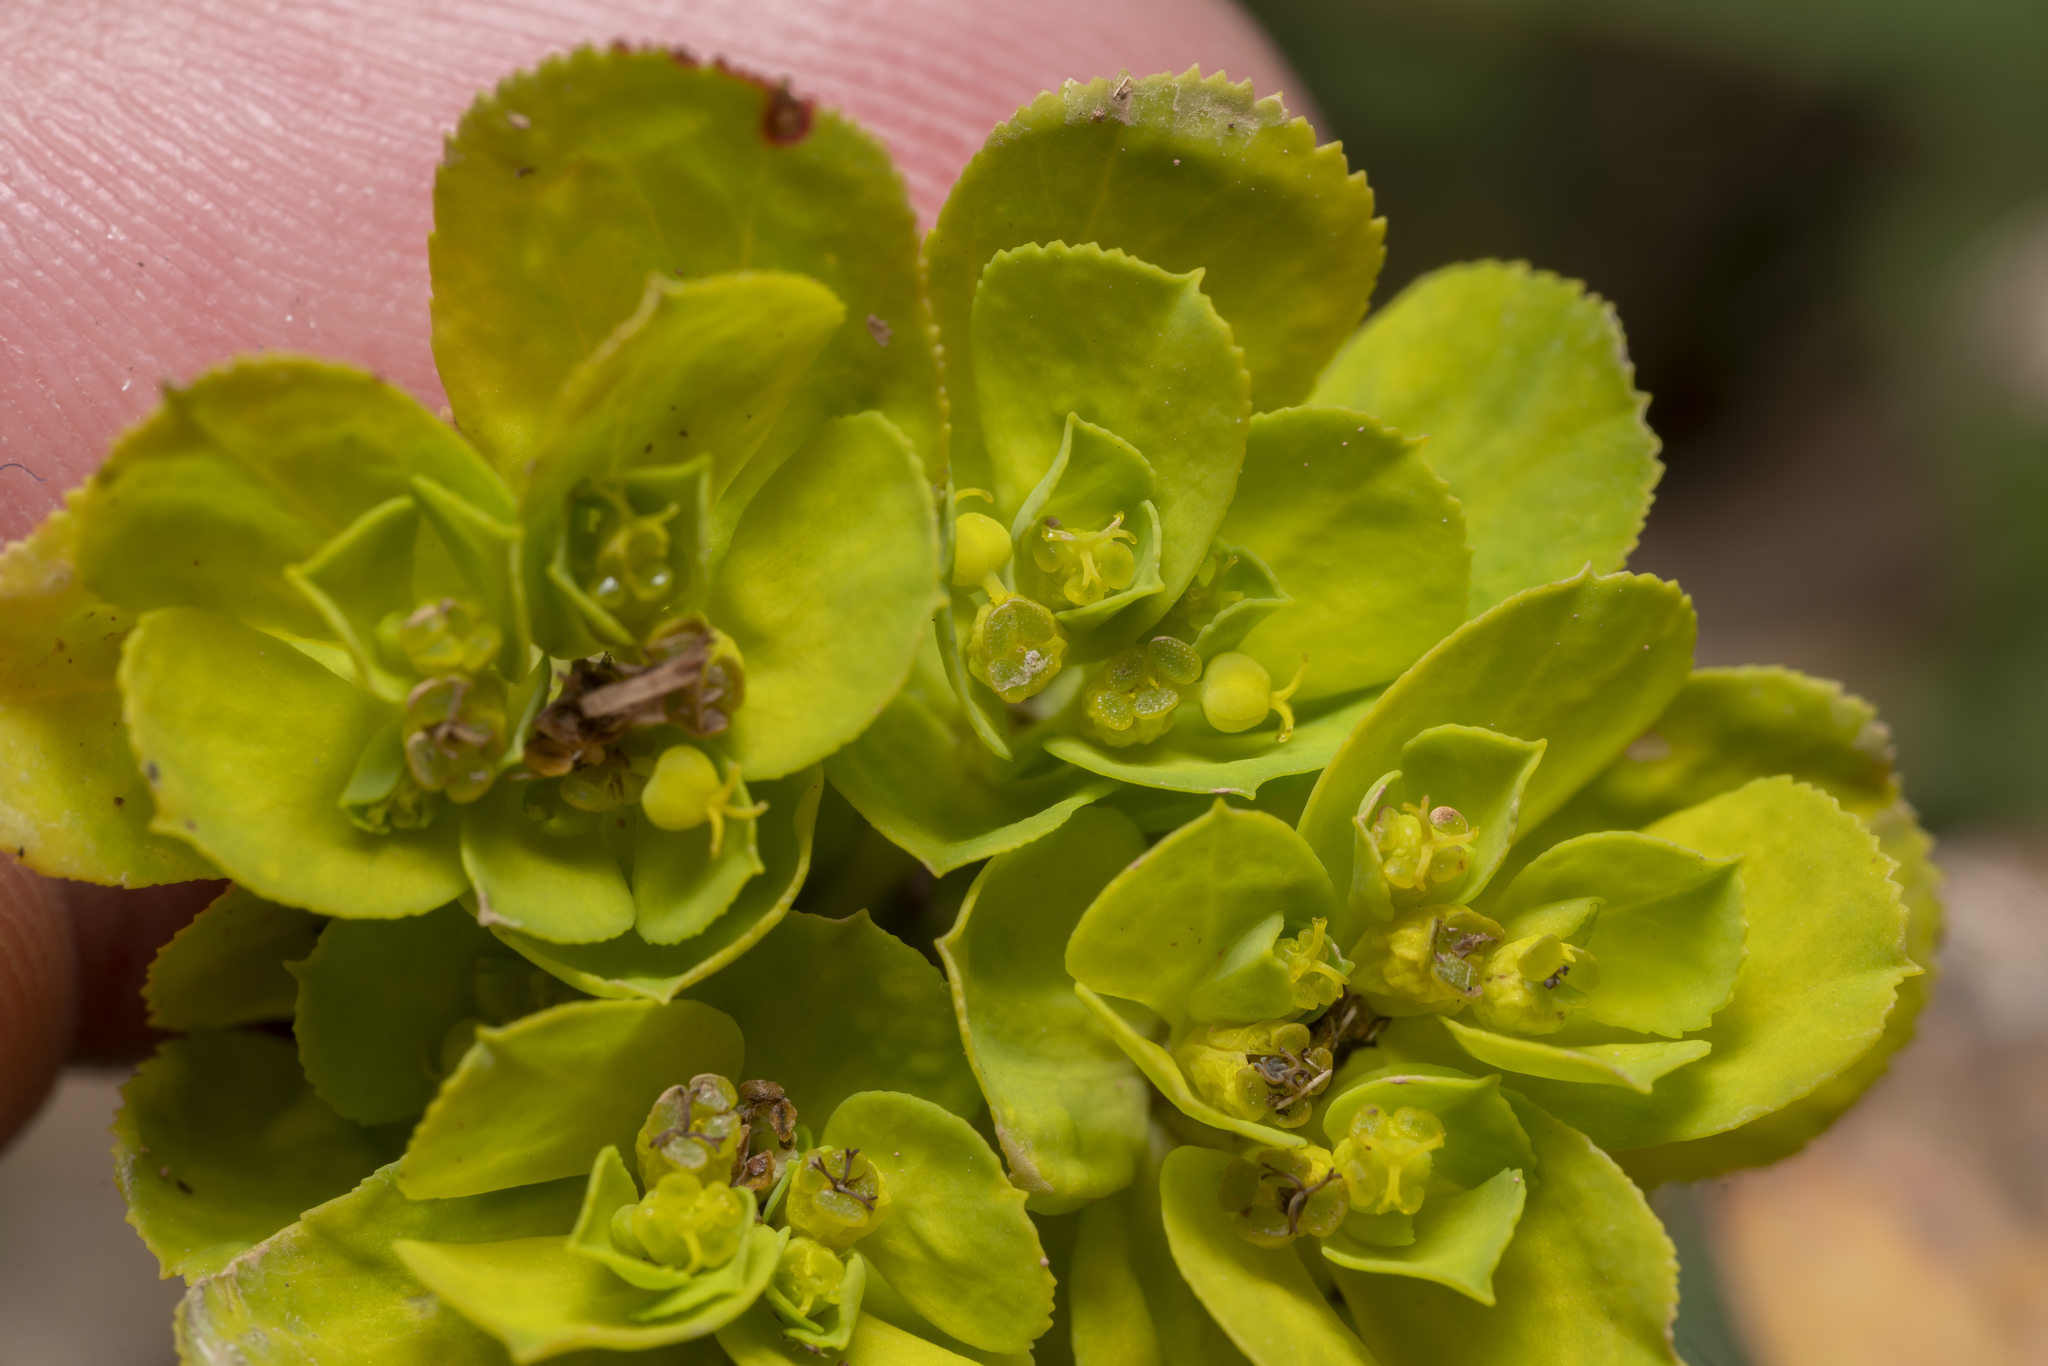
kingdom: Plantae
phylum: Tracheophyta
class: Magnoliopsida
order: Malpighiales
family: Euphorbiaceae
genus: Euphorbia
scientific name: Euphorbia helioscopia
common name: Sun spurge
